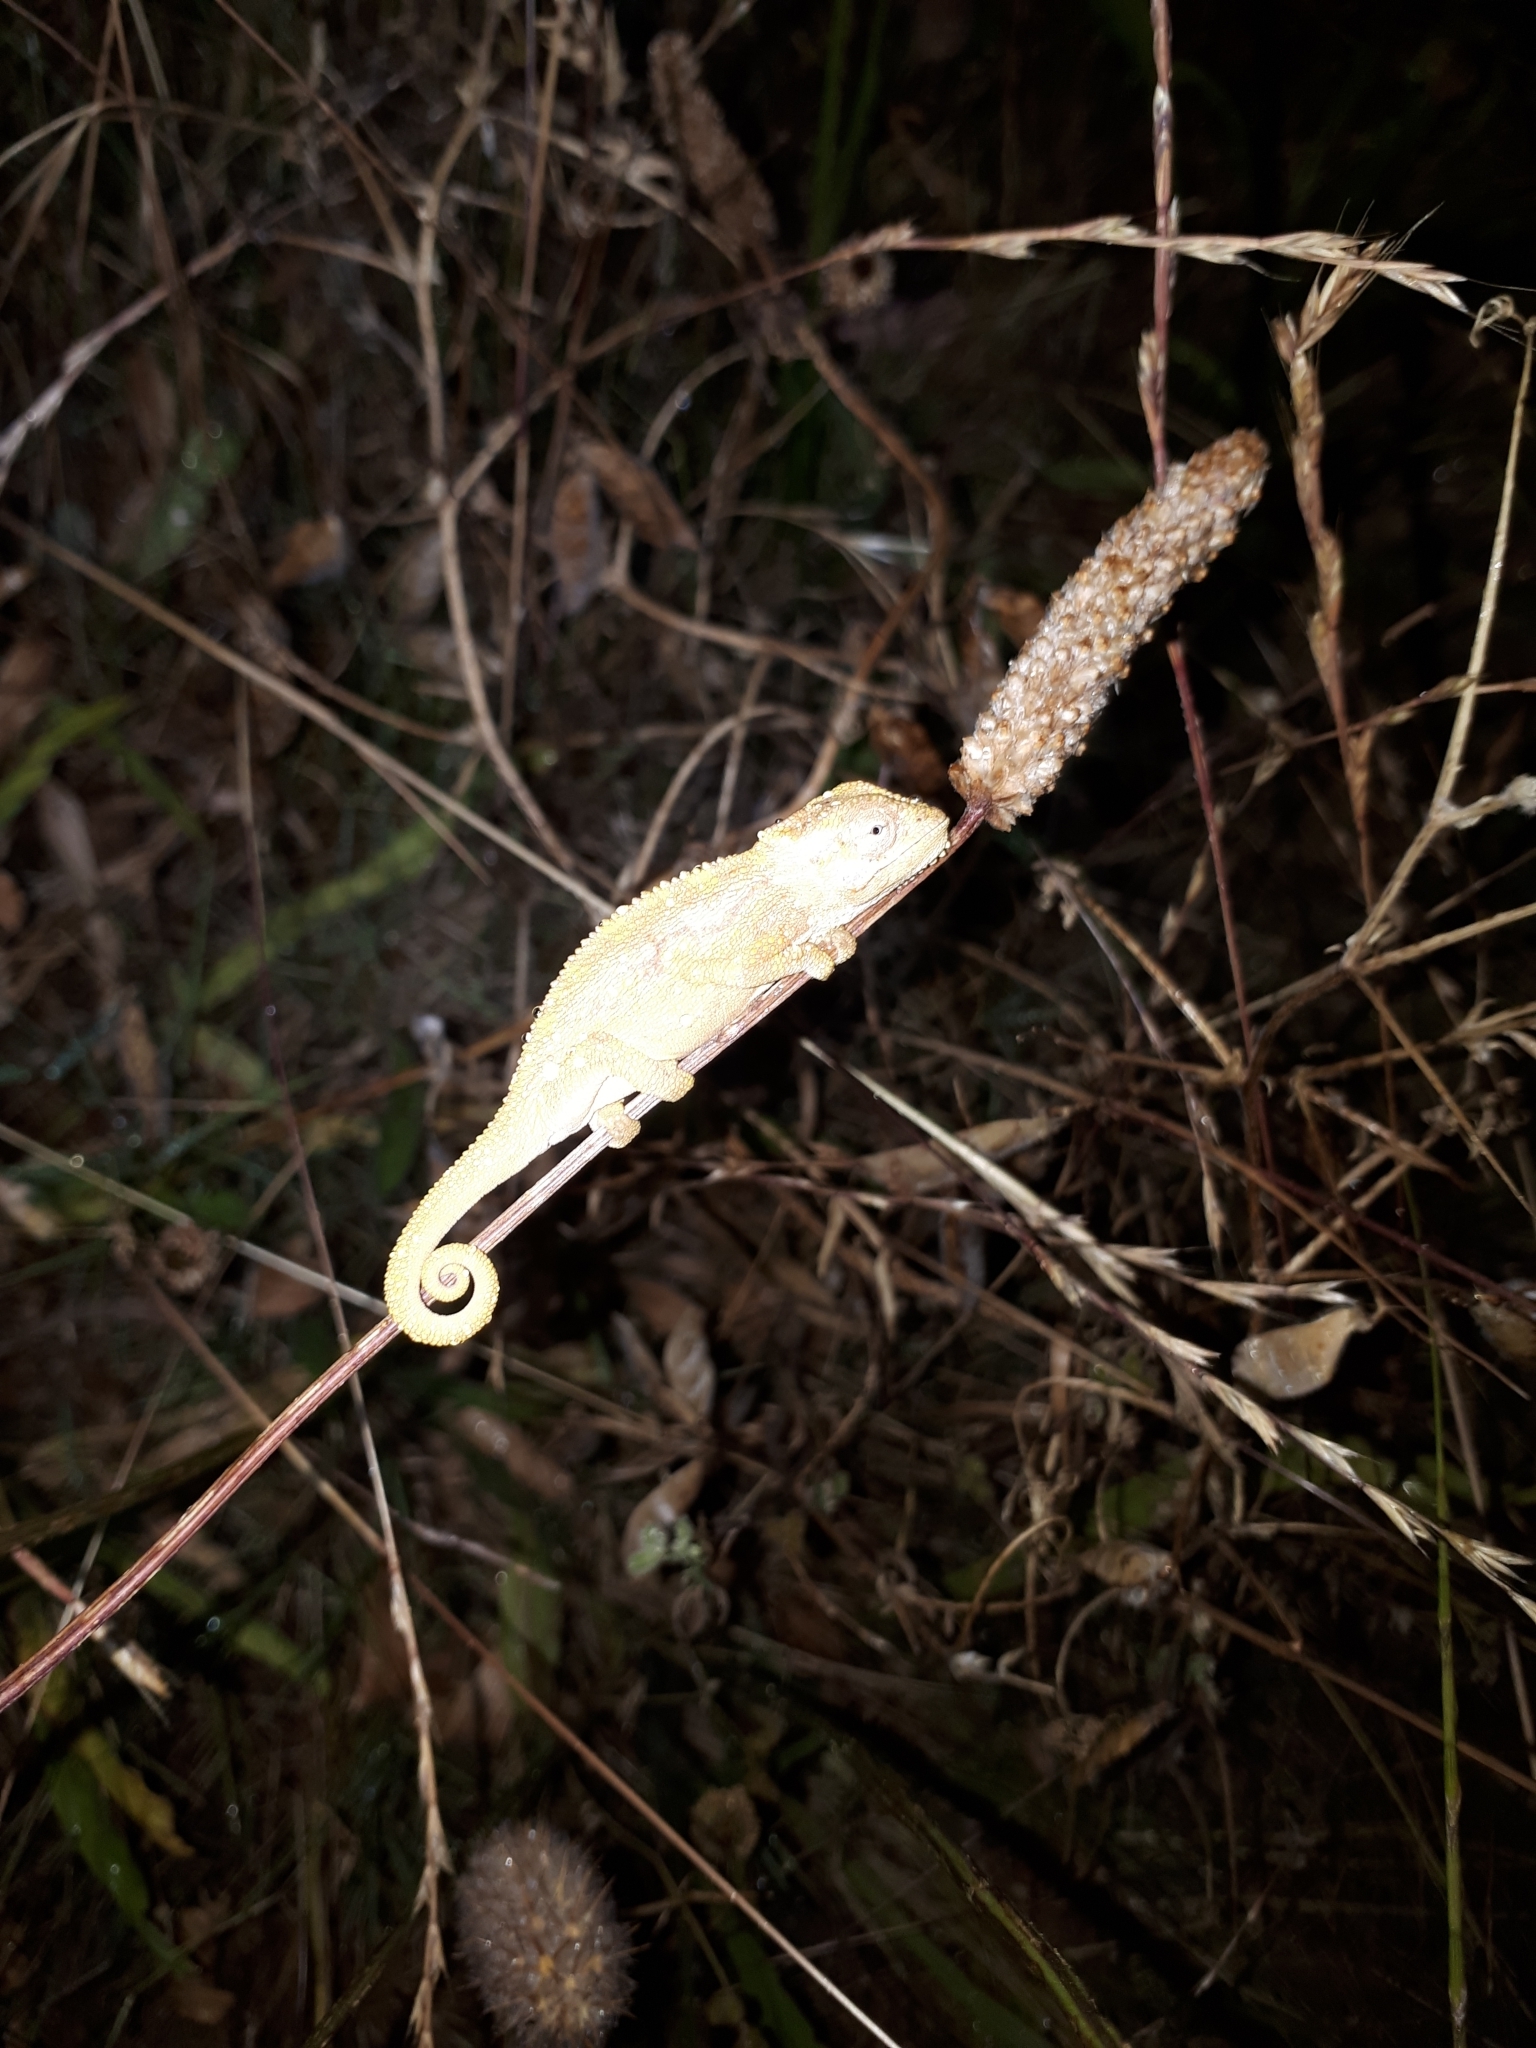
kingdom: Animalia
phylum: Chordata
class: Squamata
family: Chamaeleonidae
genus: Bradypodion
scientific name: Bradypodion pumilum
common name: Cape dwarf chameleon
